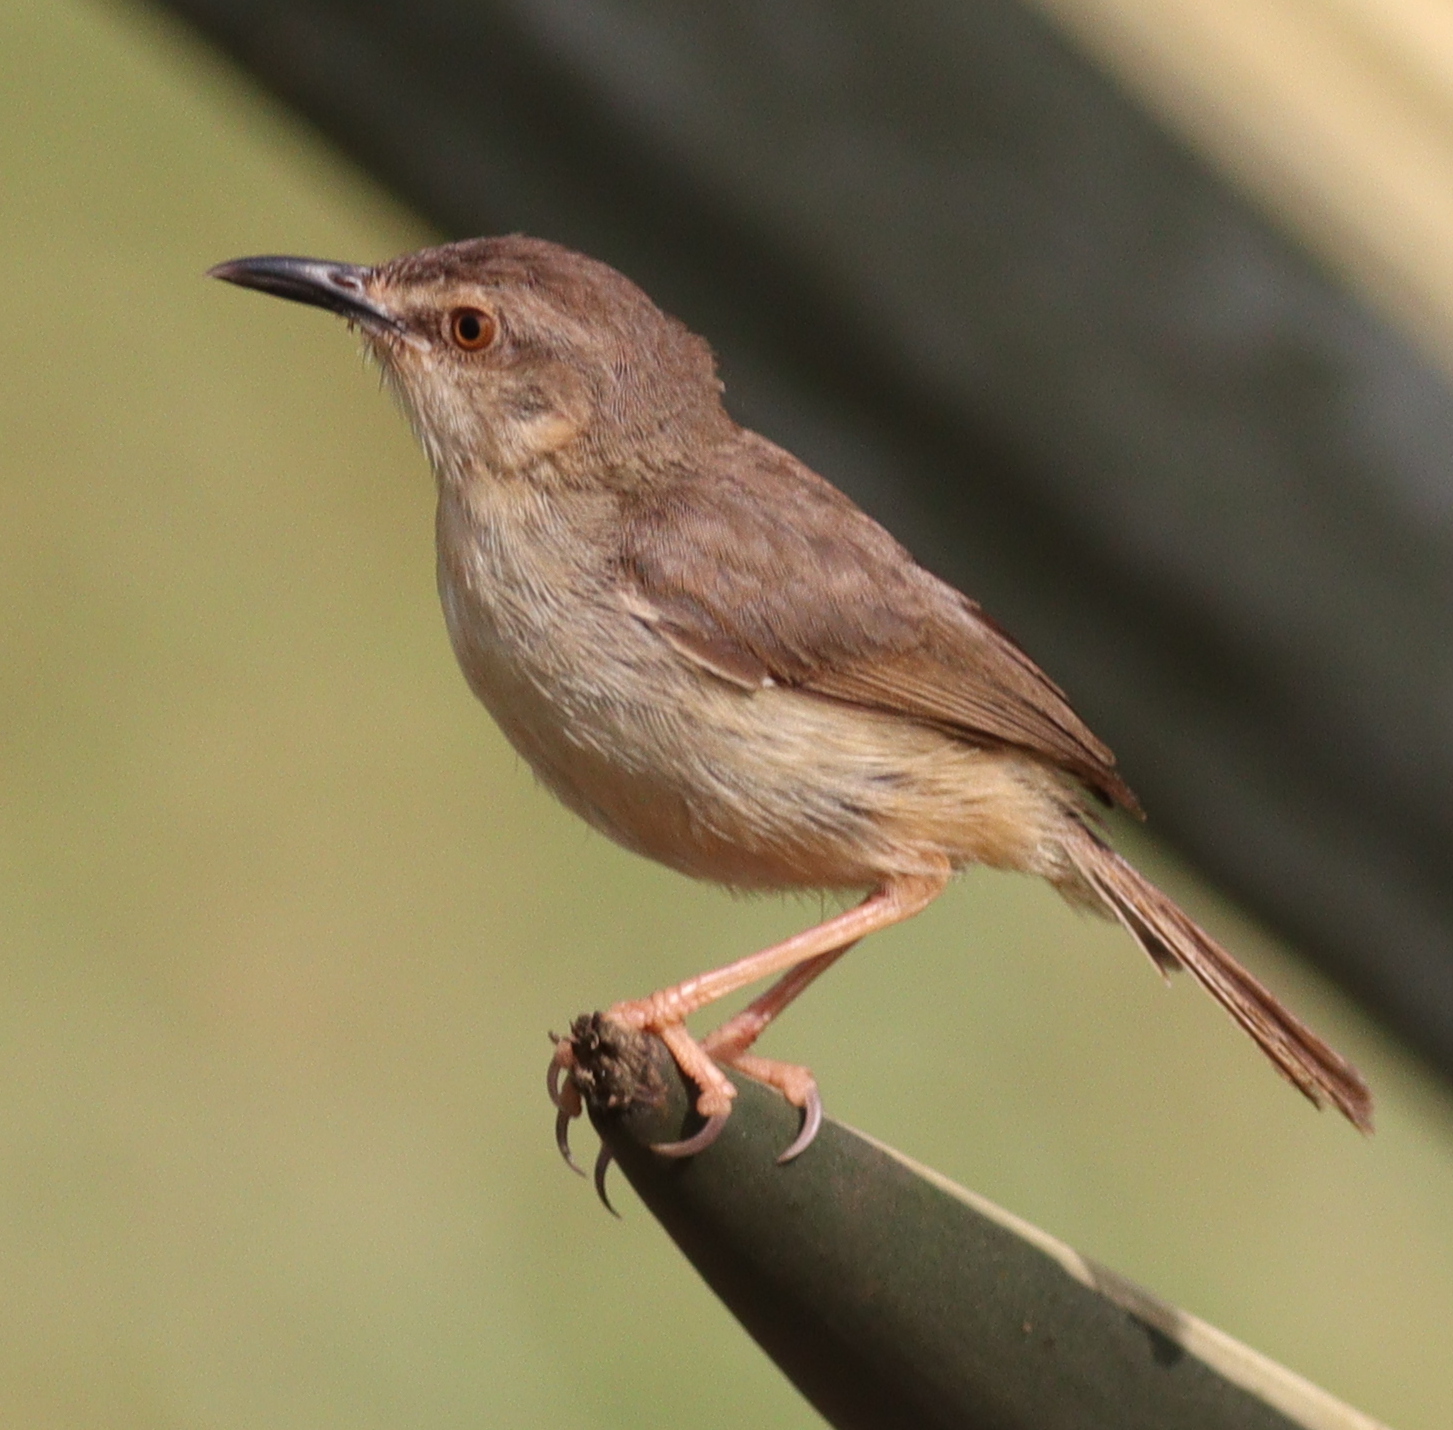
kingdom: Animalia
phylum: Chordata
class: Aves
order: Passeriformes
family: Cisticolidae
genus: Prinia
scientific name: Prinia subflava
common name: Tawny-flanked prinia
